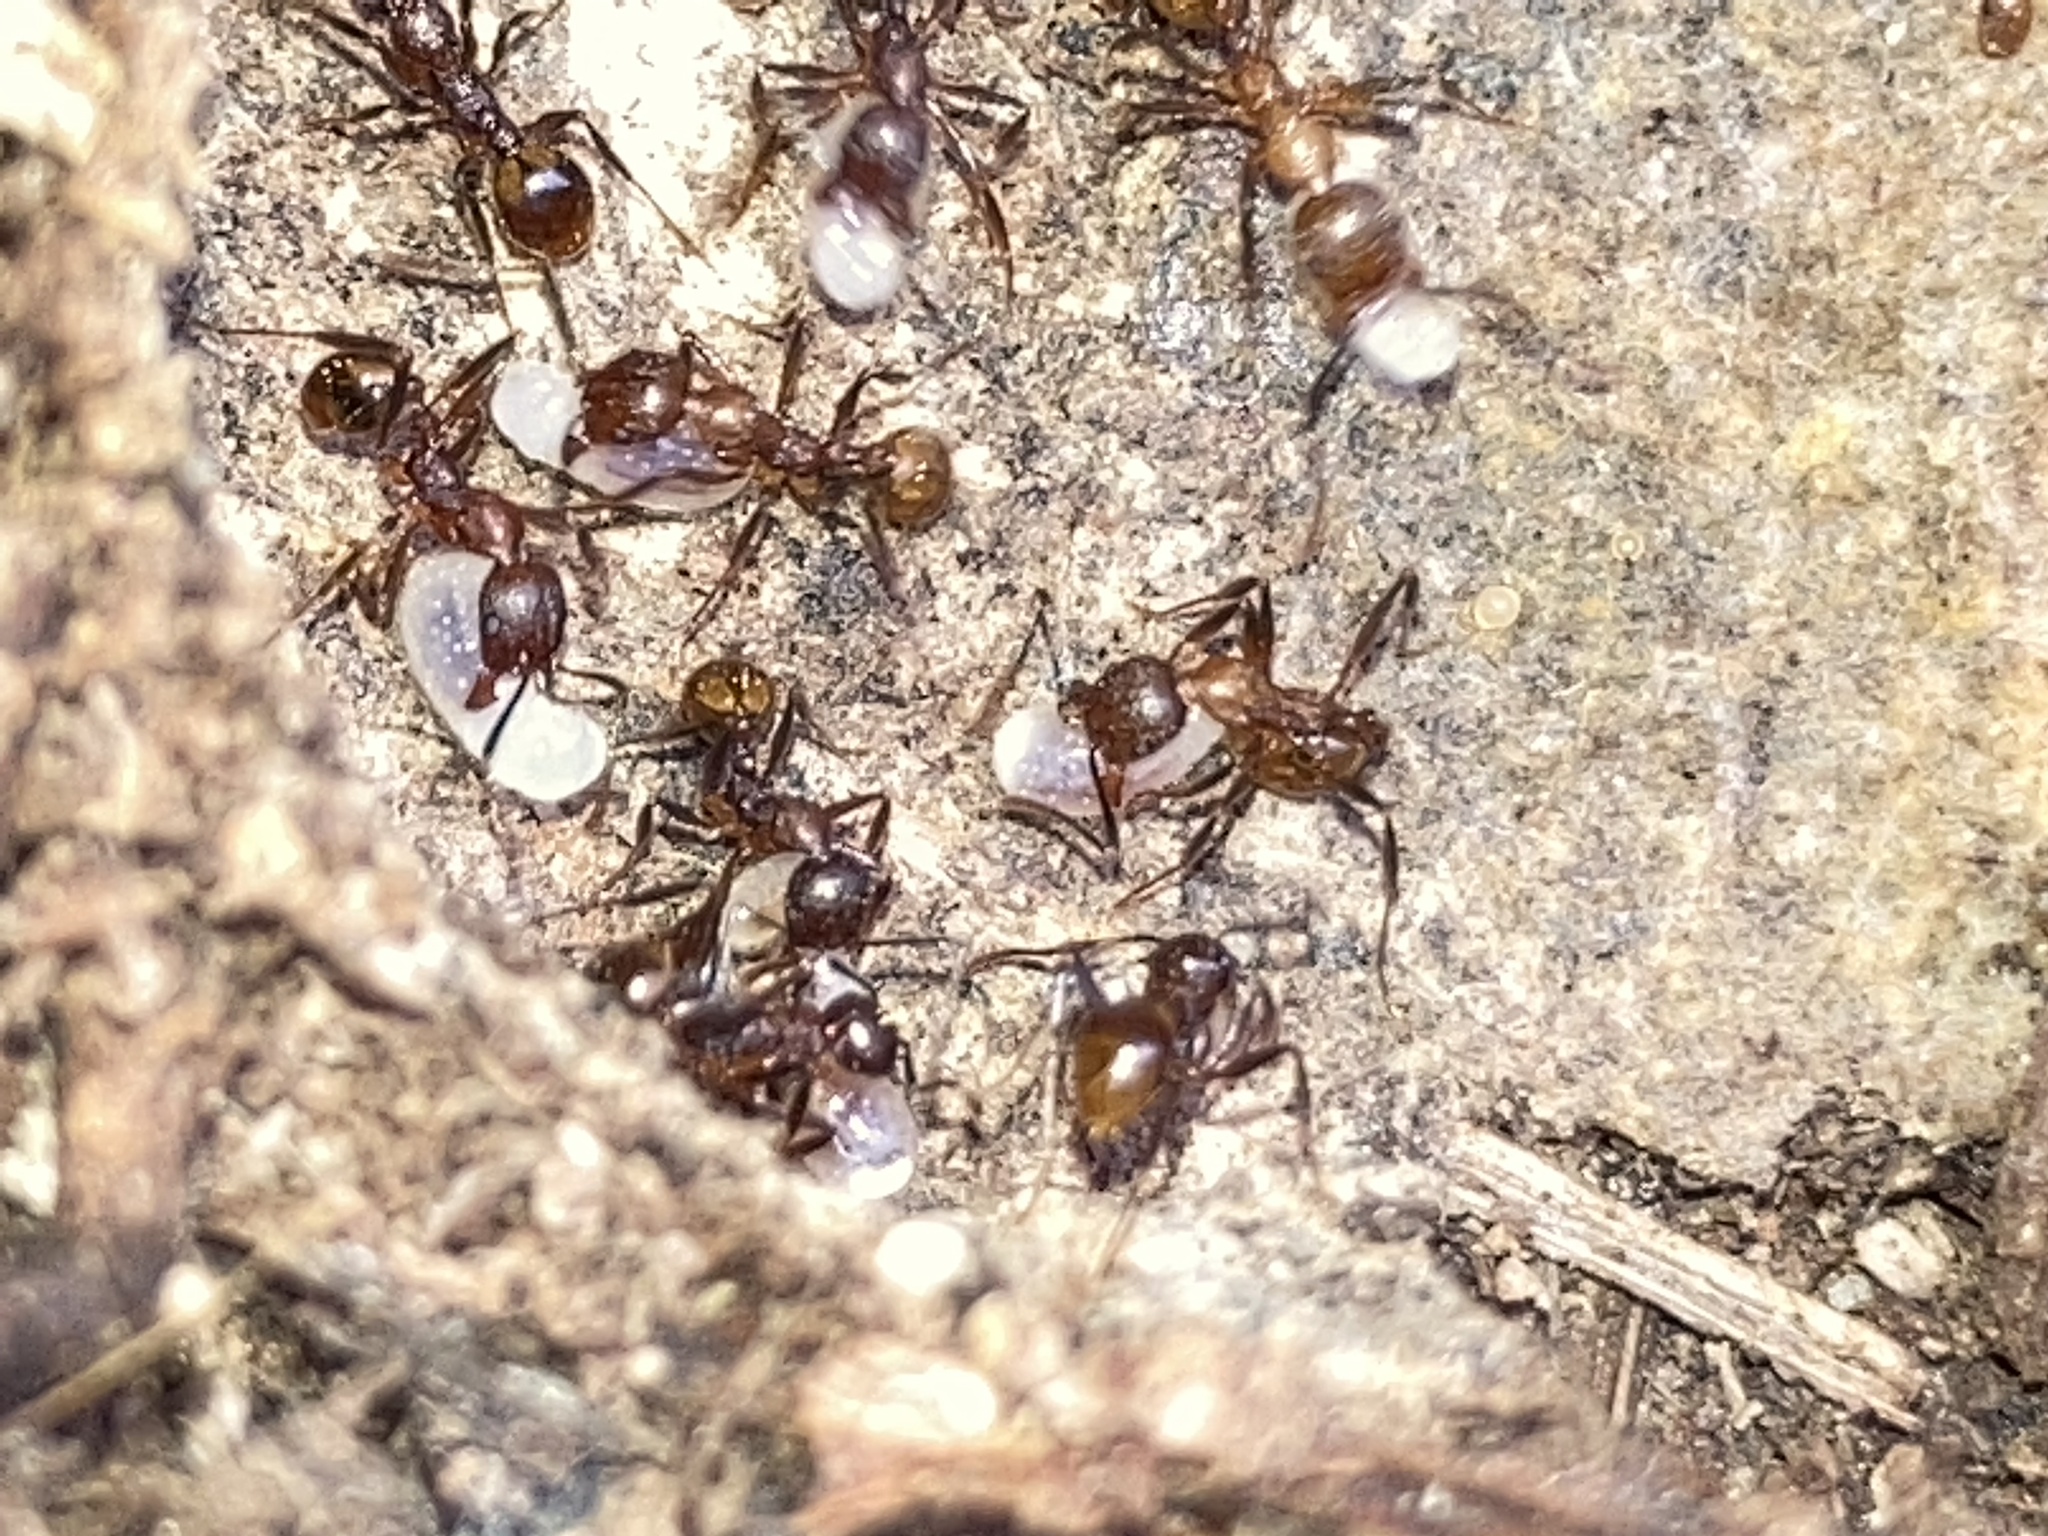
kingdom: Animalia
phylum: Arthropoda
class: Insecta
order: Hymenoptera
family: Formicidae
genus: Aphaenogaster
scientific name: Aphaenogaster fulva
